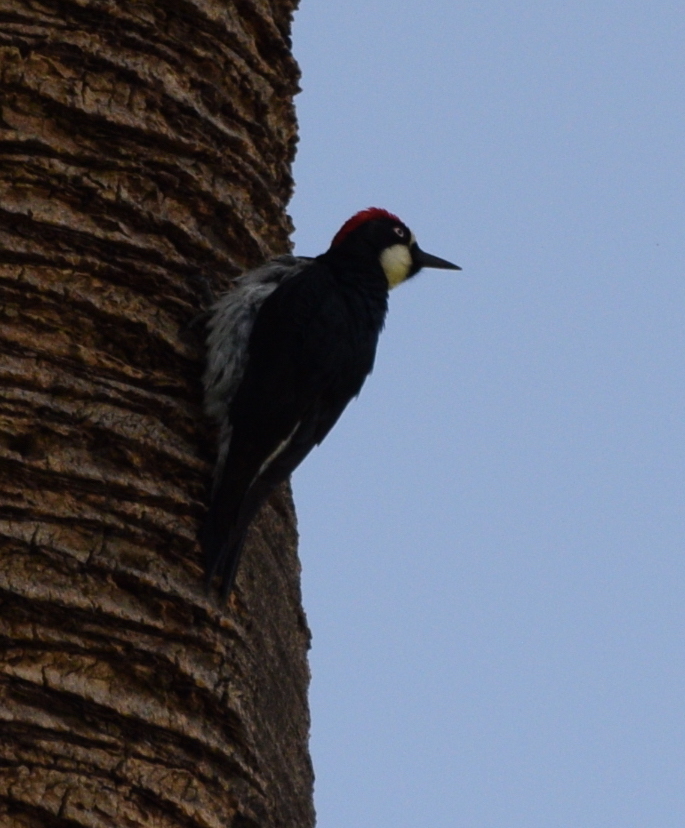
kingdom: Animalia
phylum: Chordata
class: Aves
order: Piciformes
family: Picidae
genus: Melanerpes
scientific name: Melanerpes formicivorus
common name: Acorn woodpecker
